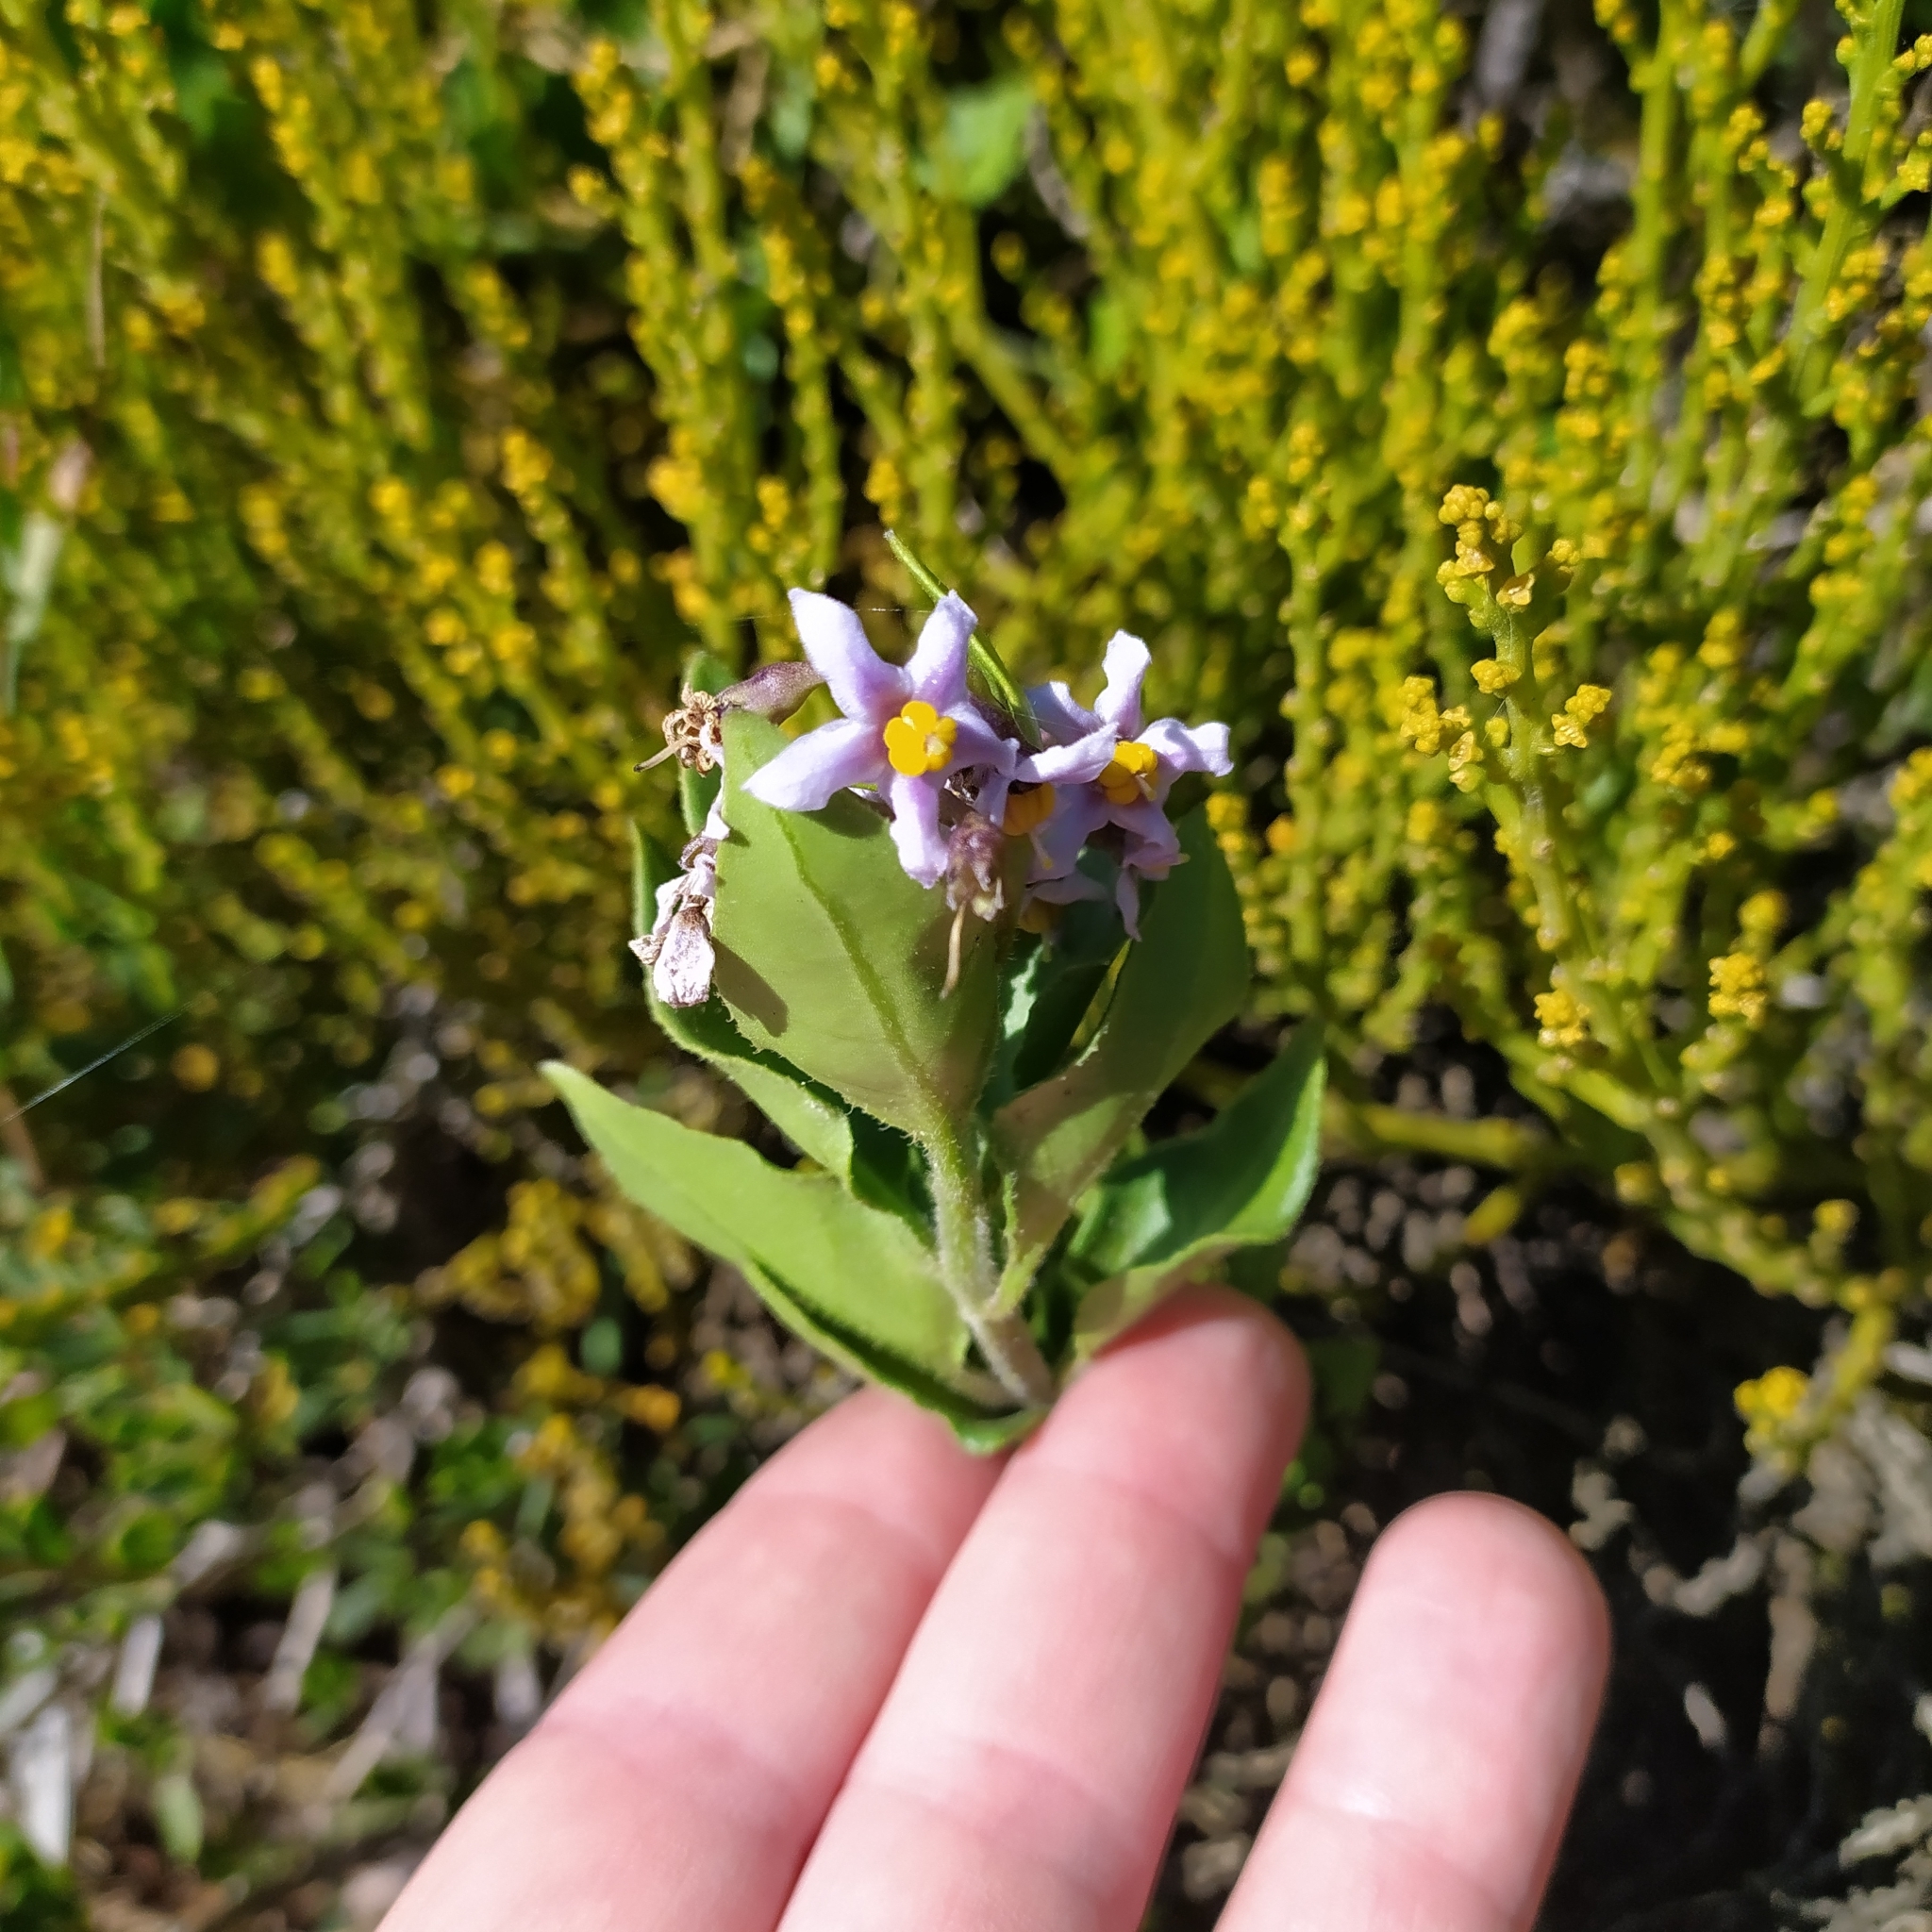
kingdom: Plantae
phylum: Tracheophyta
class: Magnoliopsida
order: Solanales
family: Solanaceae
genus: Solanum
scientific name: Solanum africanum
